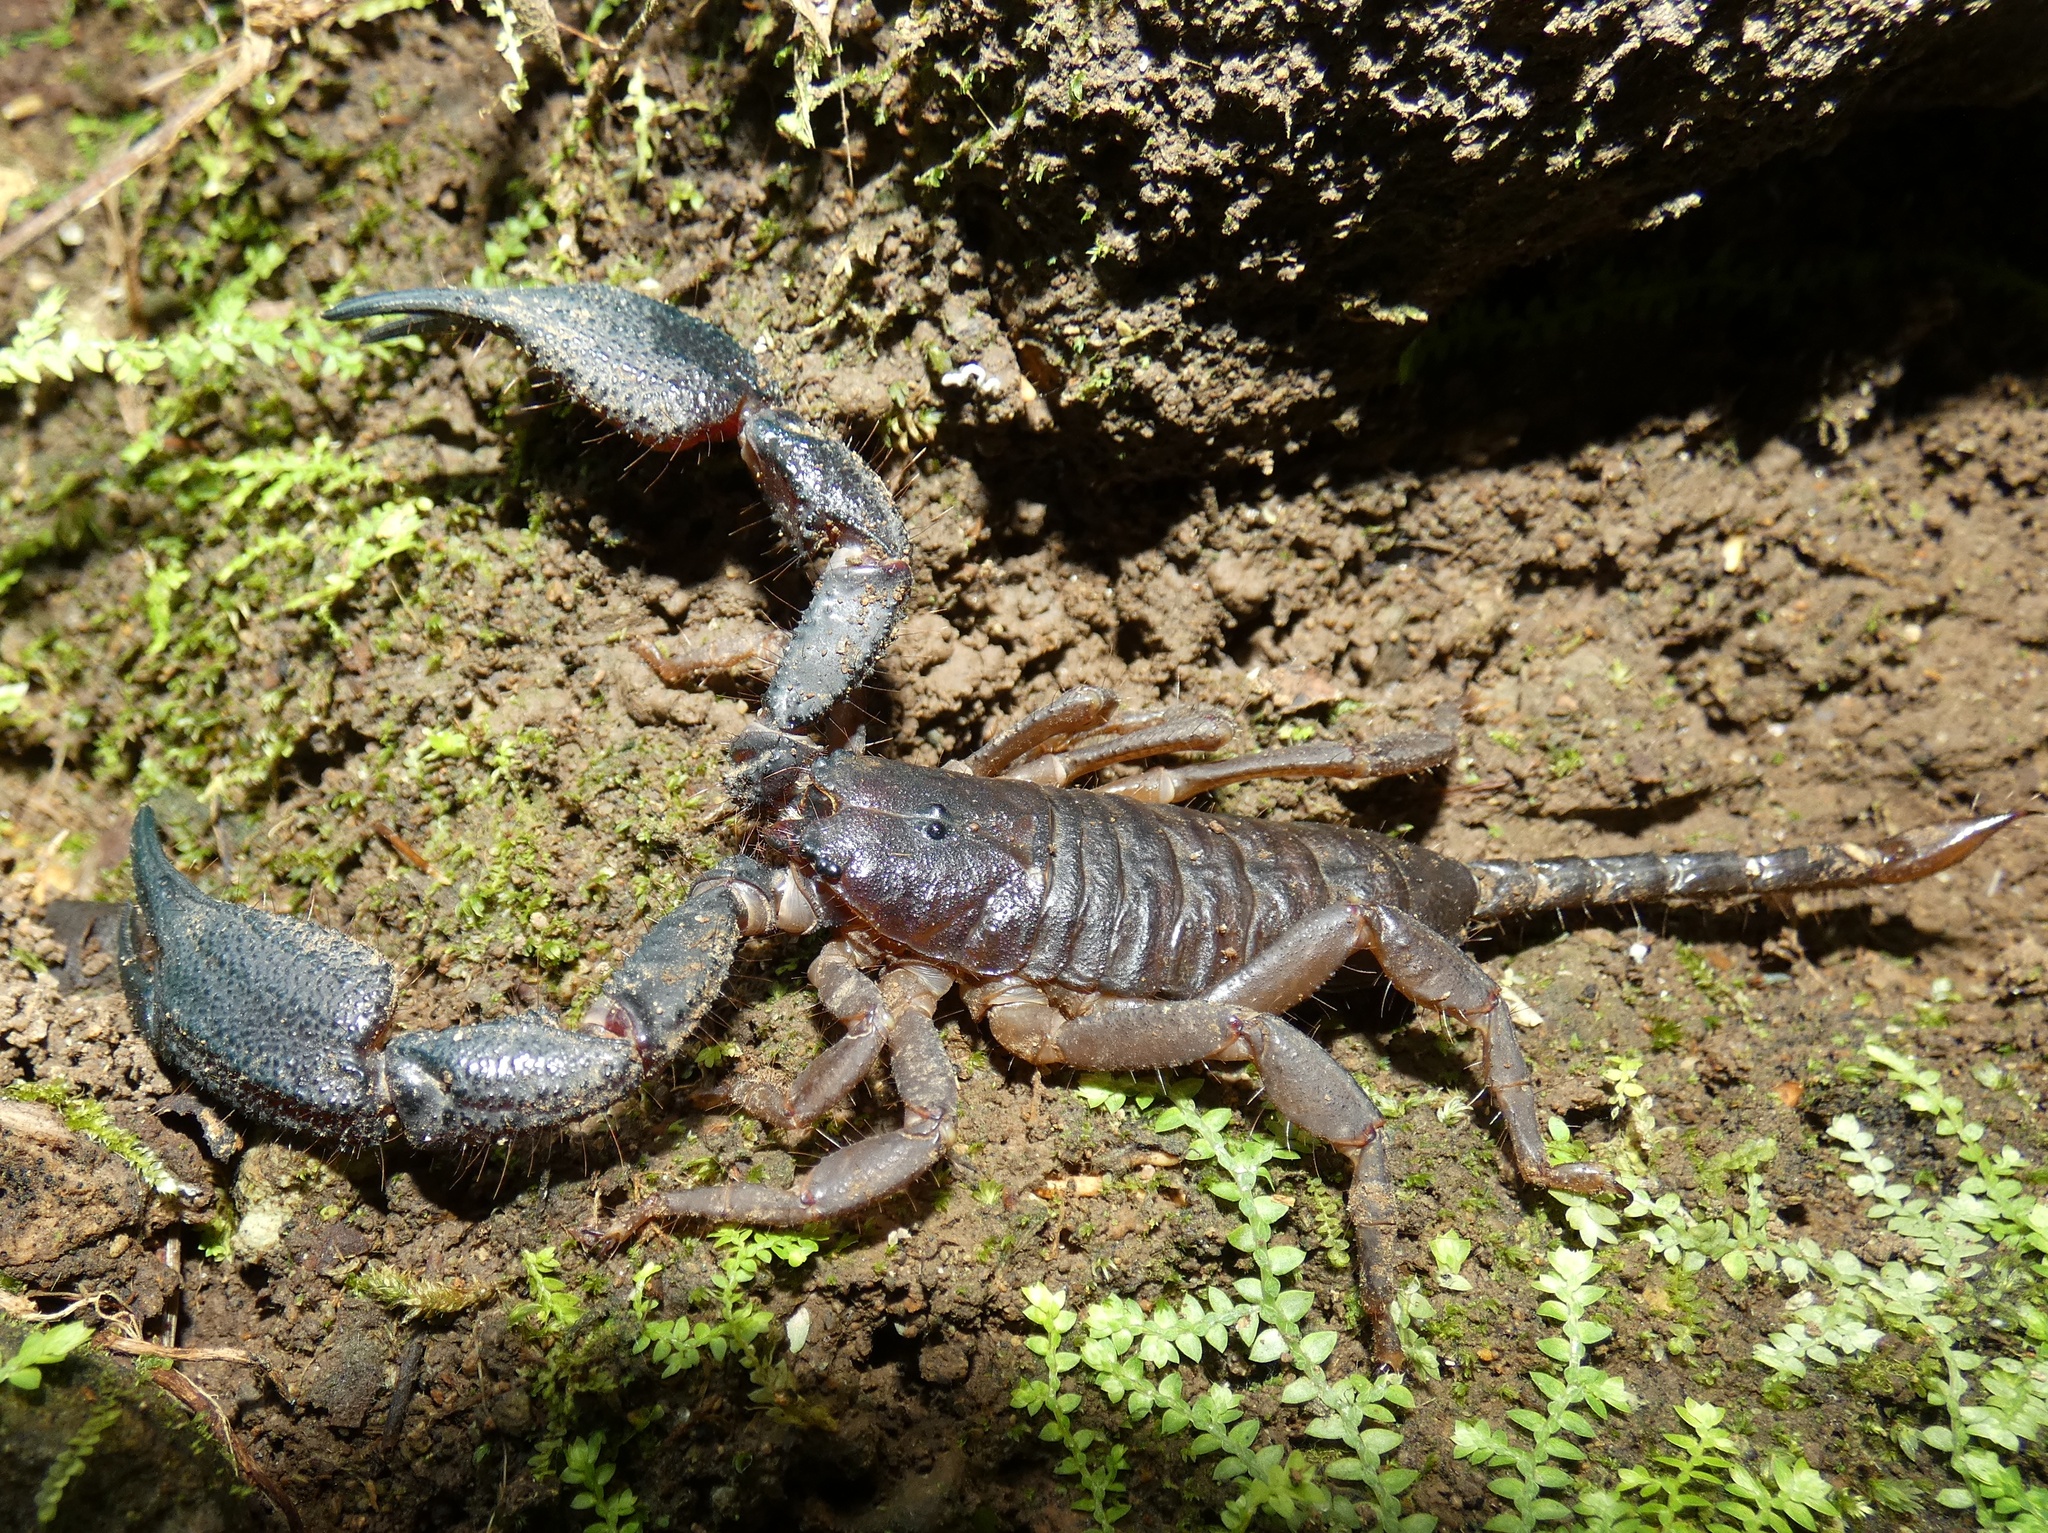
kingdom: Animalia
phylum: Arthropoda
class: Arachnida
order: Scorpiones
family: Hormuridae
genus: Opisthacanthus
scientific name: Opisthacanthus elatus
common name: Scorpions
